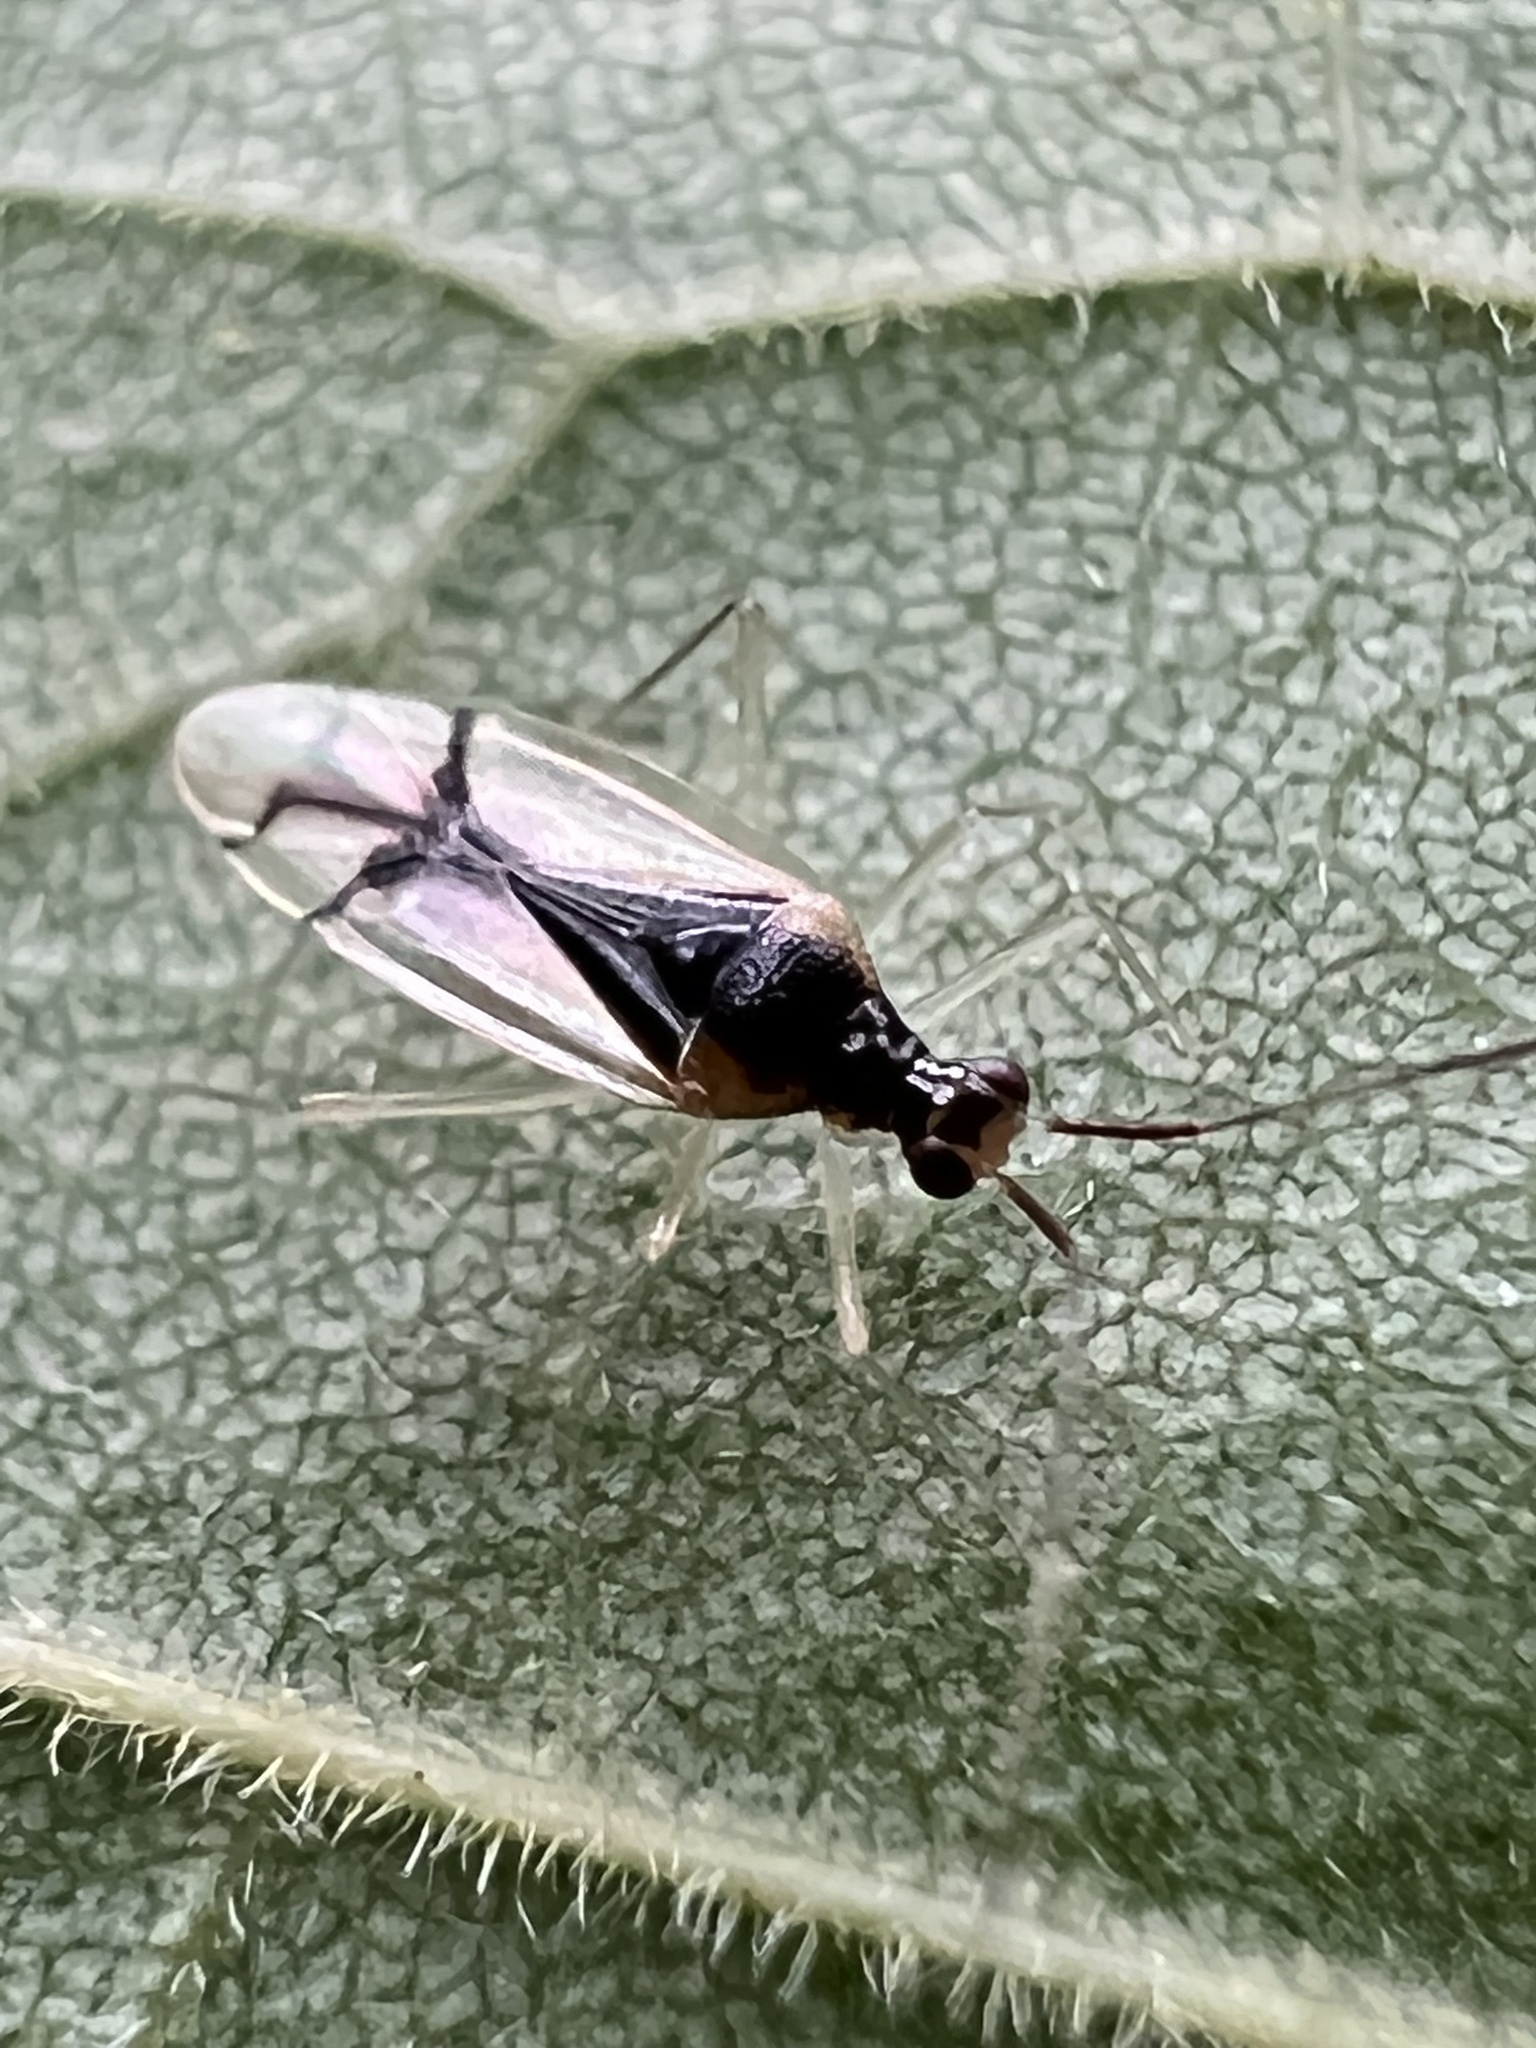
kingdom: Animalia
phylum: Arthropoda
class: Insecta
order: Hemiptera
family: Miridae
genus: Hyaliodes
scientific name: Hyaliodes vitripennis
